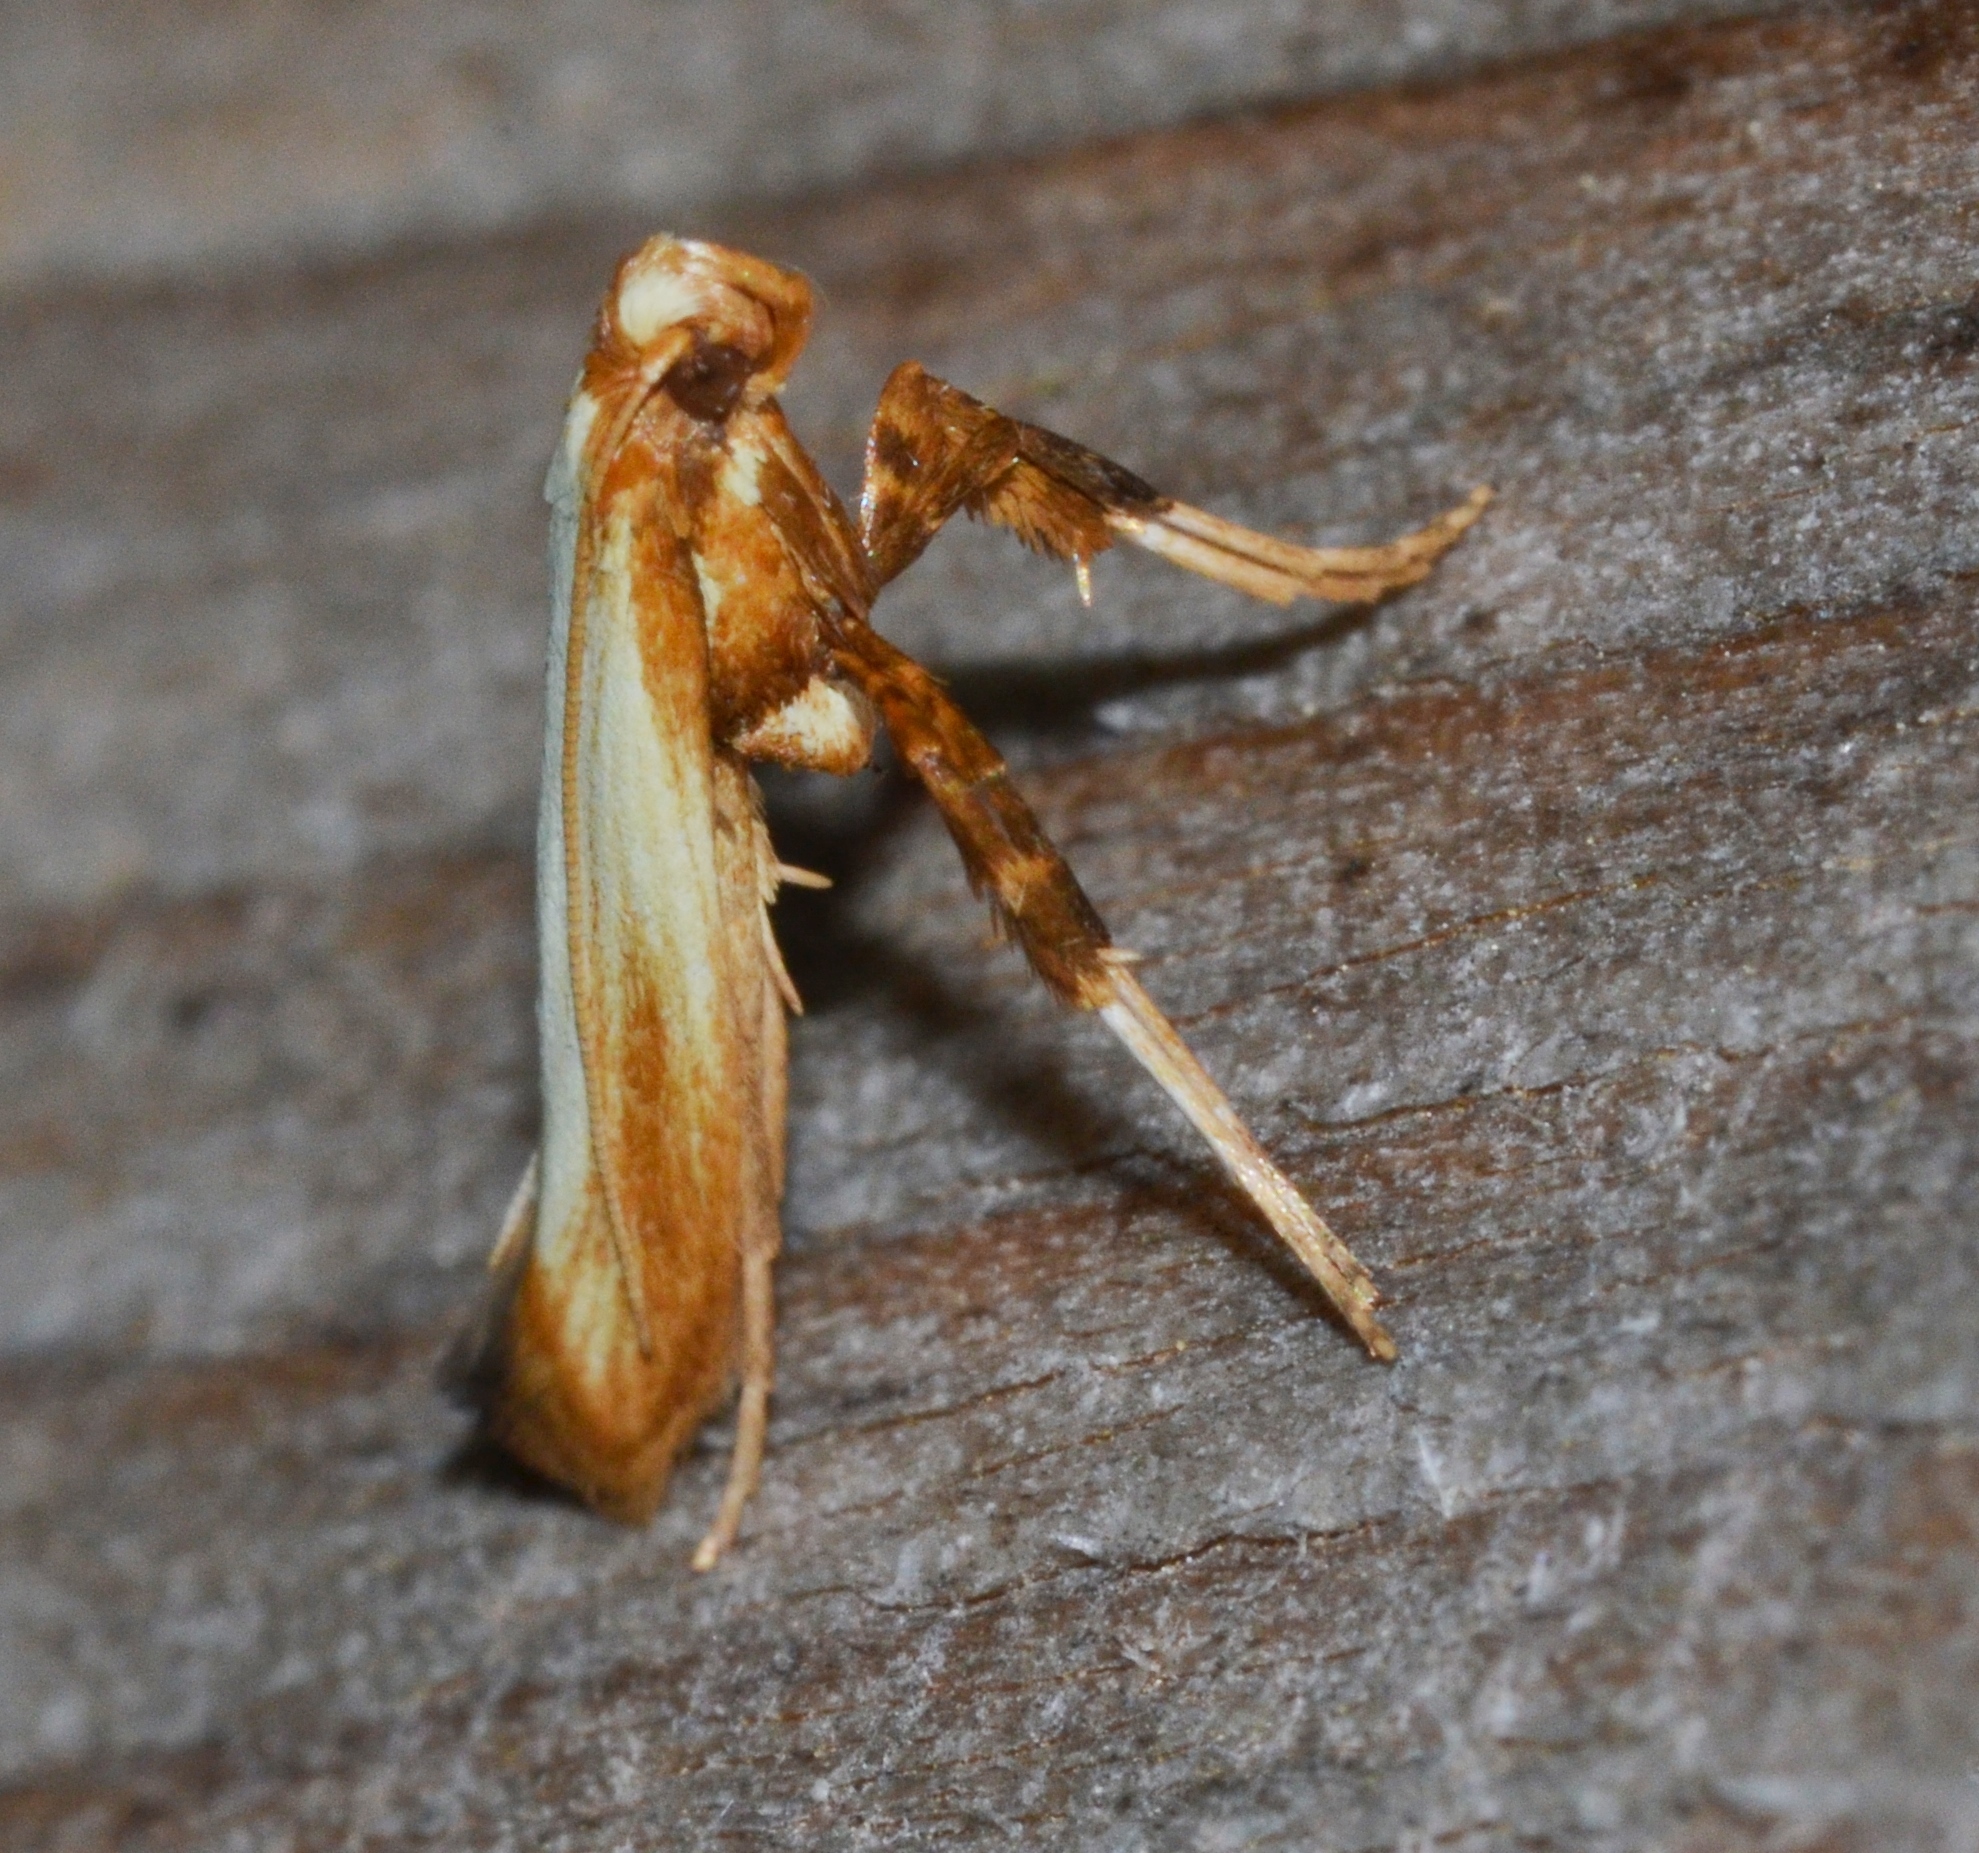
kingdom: Animalia
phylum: Arthropoda
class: Insecta
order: Lepidoptera
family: Gracillariidae
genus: Caloptilia
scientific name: Caloptilia murtfeldtella
